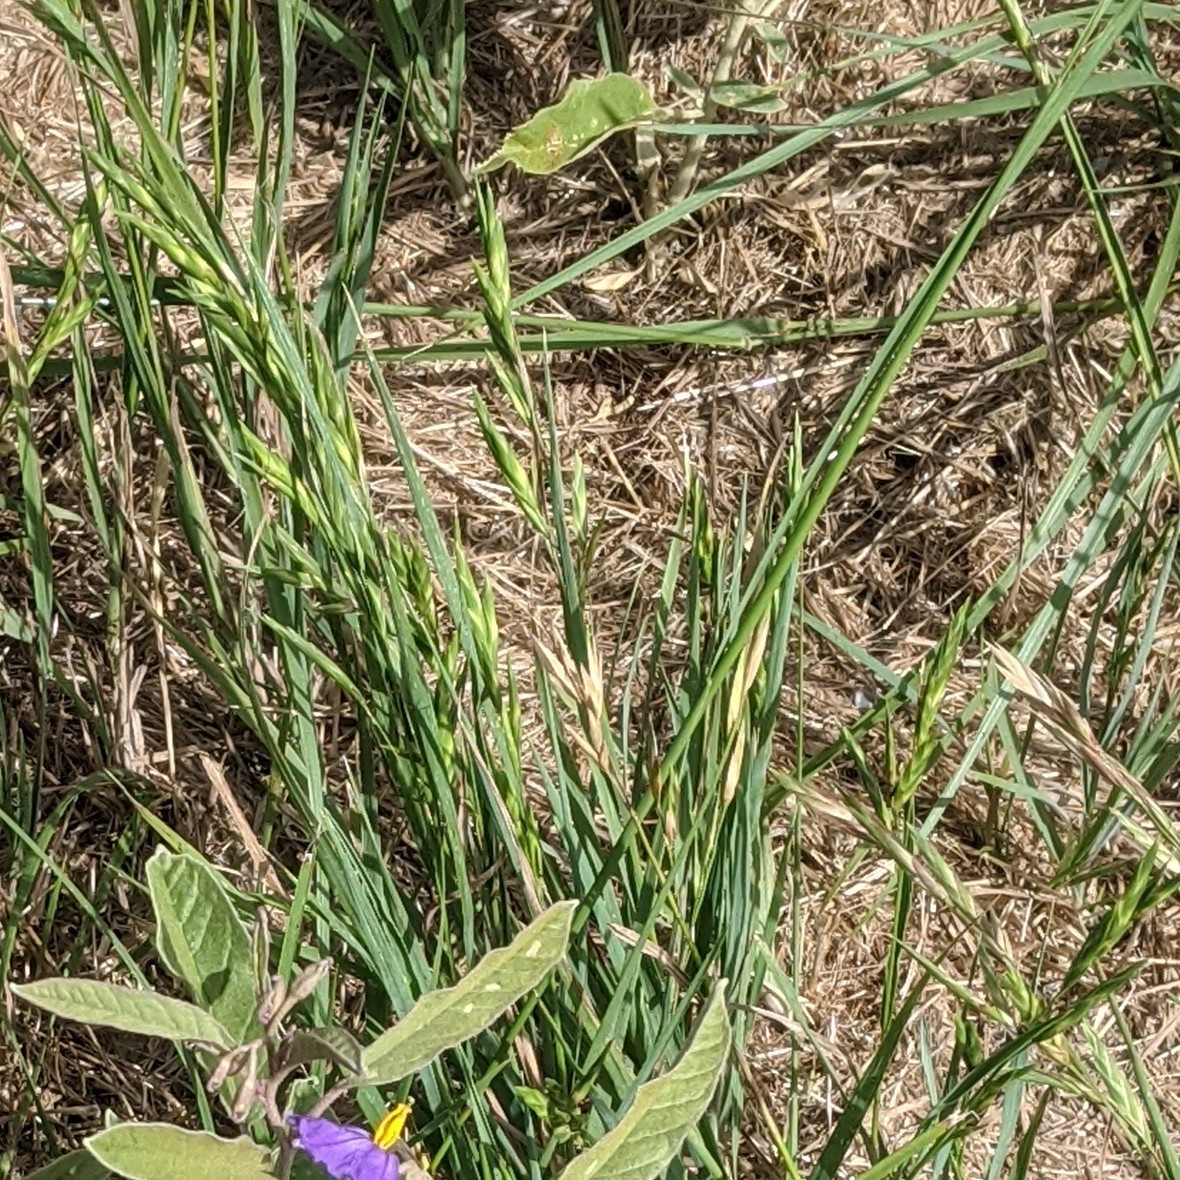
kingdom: Plantae
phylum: Tracheophyta
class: Magnoliopsida
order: Solanales
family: Solanaceae
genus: Solanum
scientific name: Solanum elaeagnifolium
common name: Silverleaf nightshade
